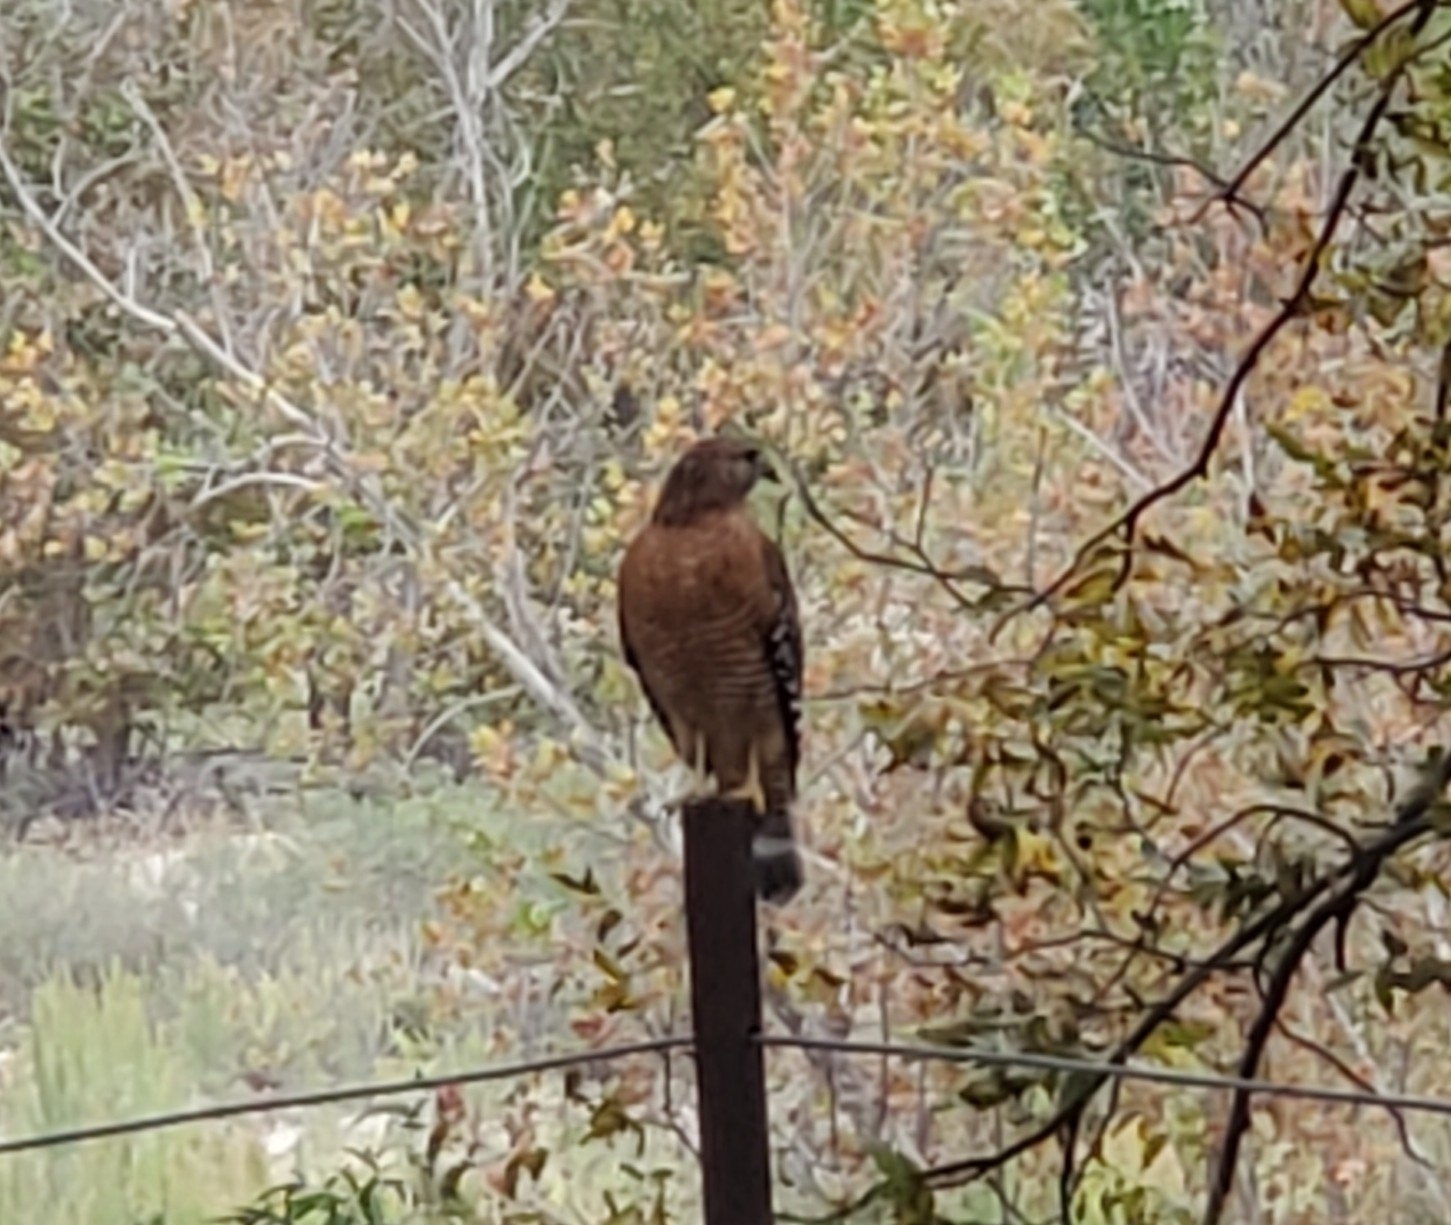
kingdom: Animalia
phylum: Chordata
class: Aves
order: Accipitriformes
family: Accipitridae
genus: Buteo
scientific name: Buteo lineatus
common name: Red-shouldered hawk
